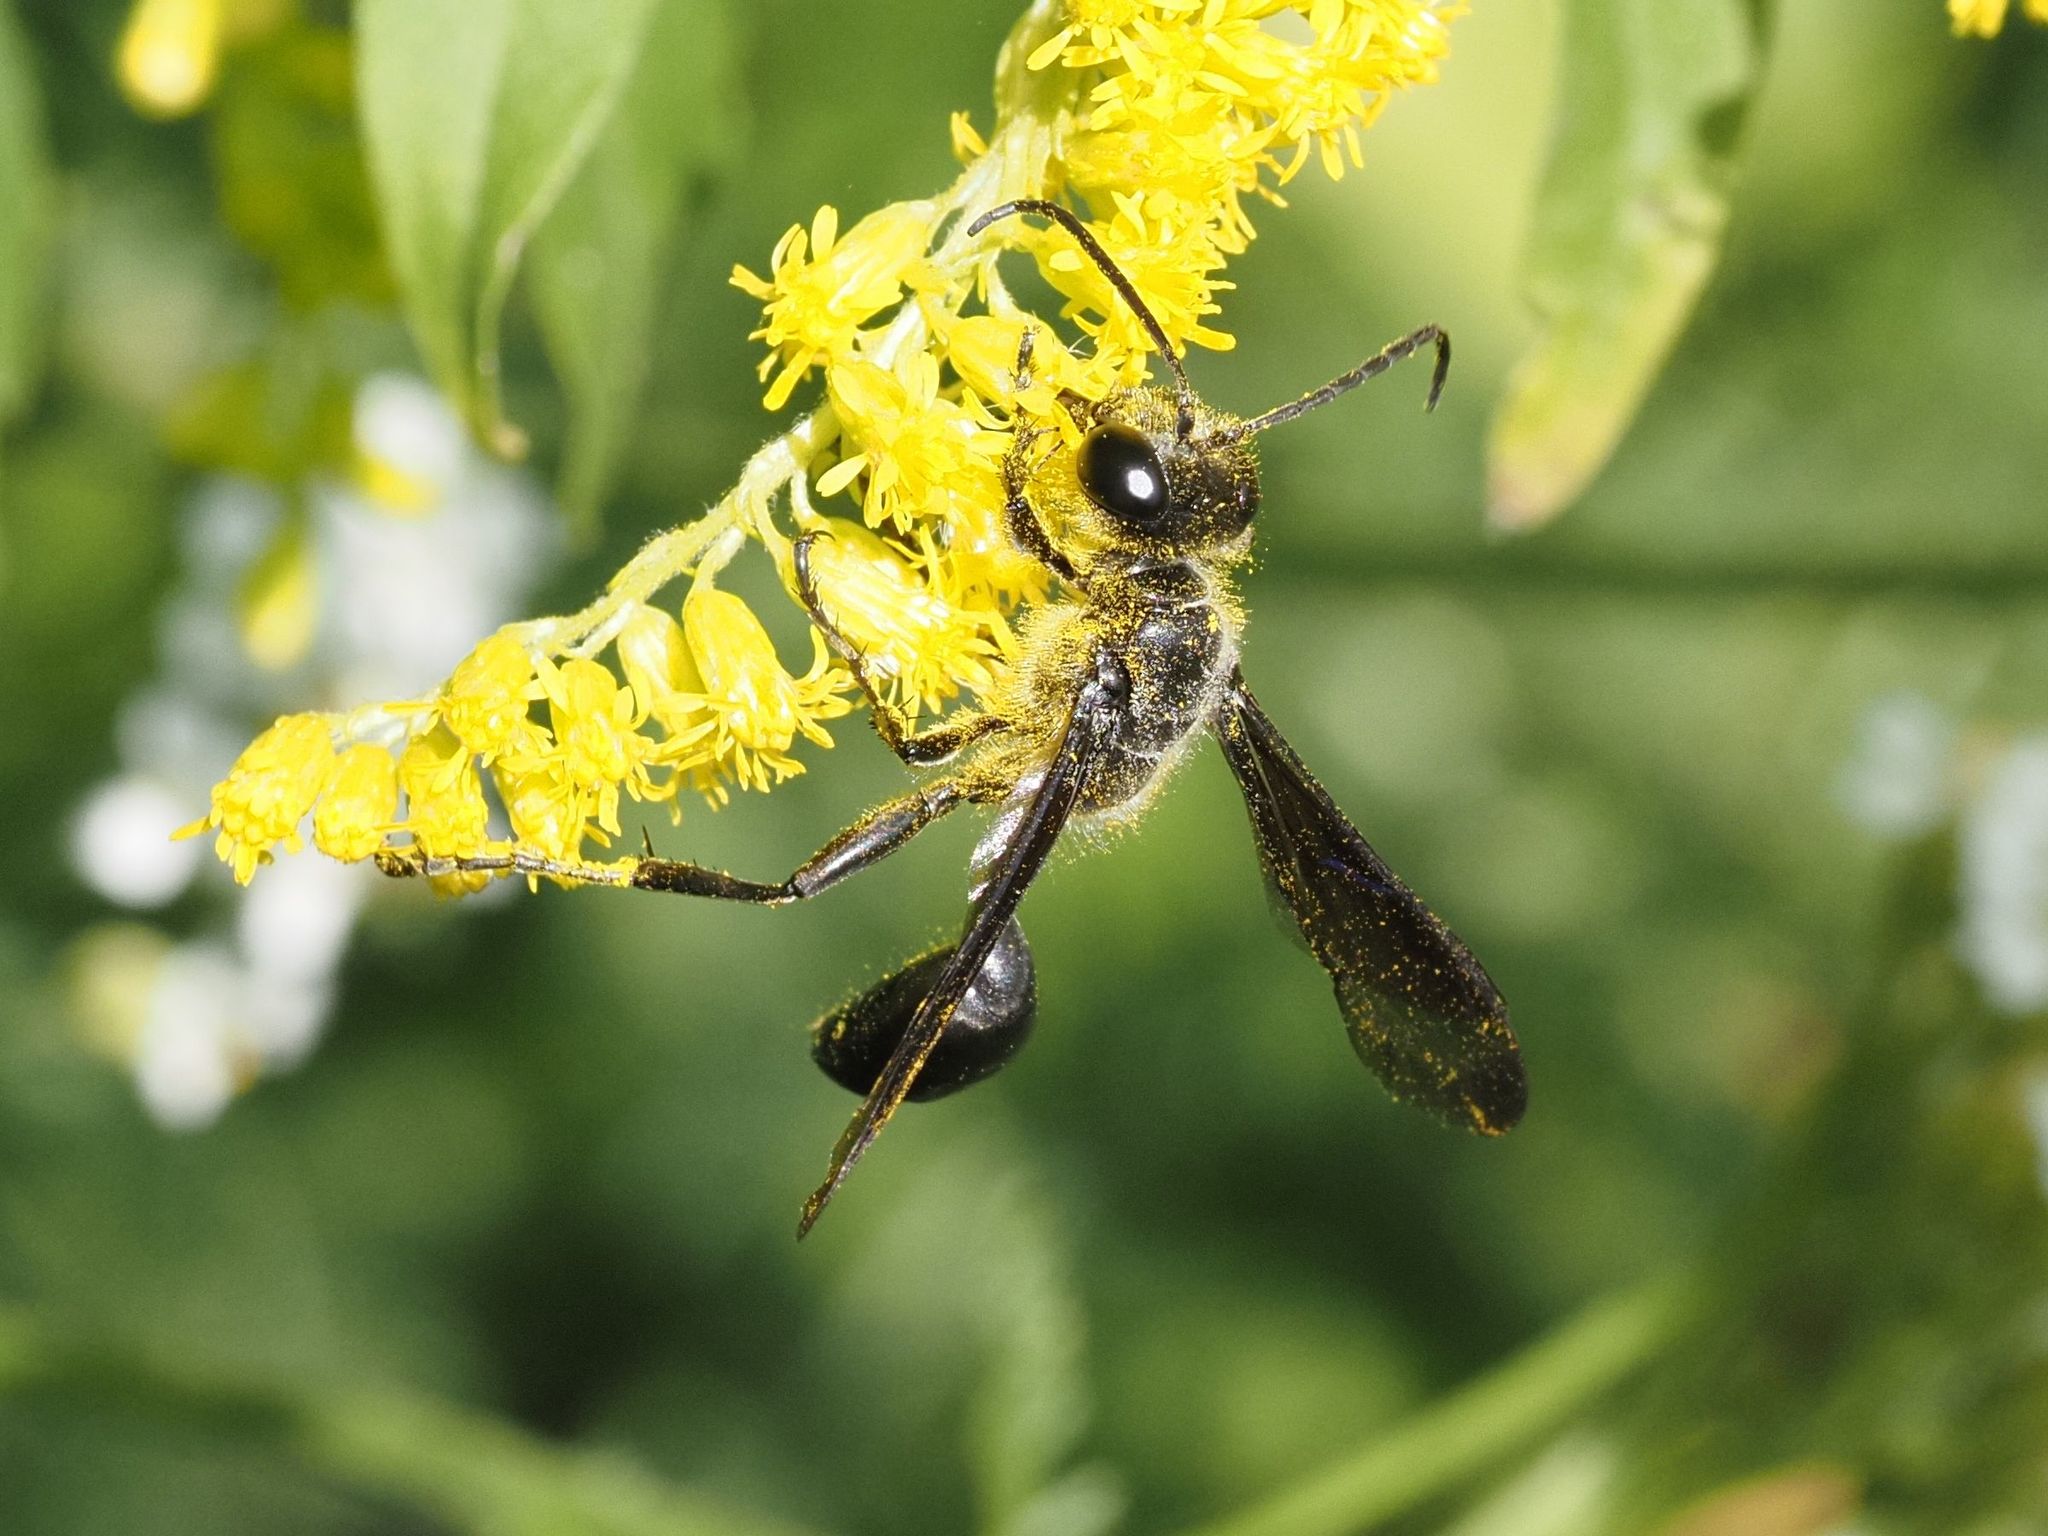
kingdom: Animalia
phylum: Arthropoda
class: Insecta
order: Hymenoptera
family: Sphecidae
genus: Isodontia
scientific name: Isodontia mexicana
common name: Mud dauber
